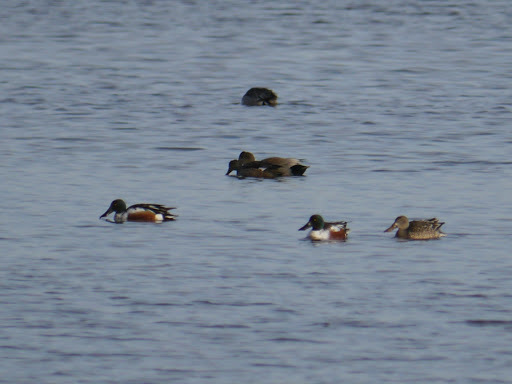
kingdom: Animalia
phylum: Chordata
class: Aves
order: Anseriformes
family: Anatidae
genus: Spatula
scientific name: Spatula clypeata
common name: Northern shoveler
